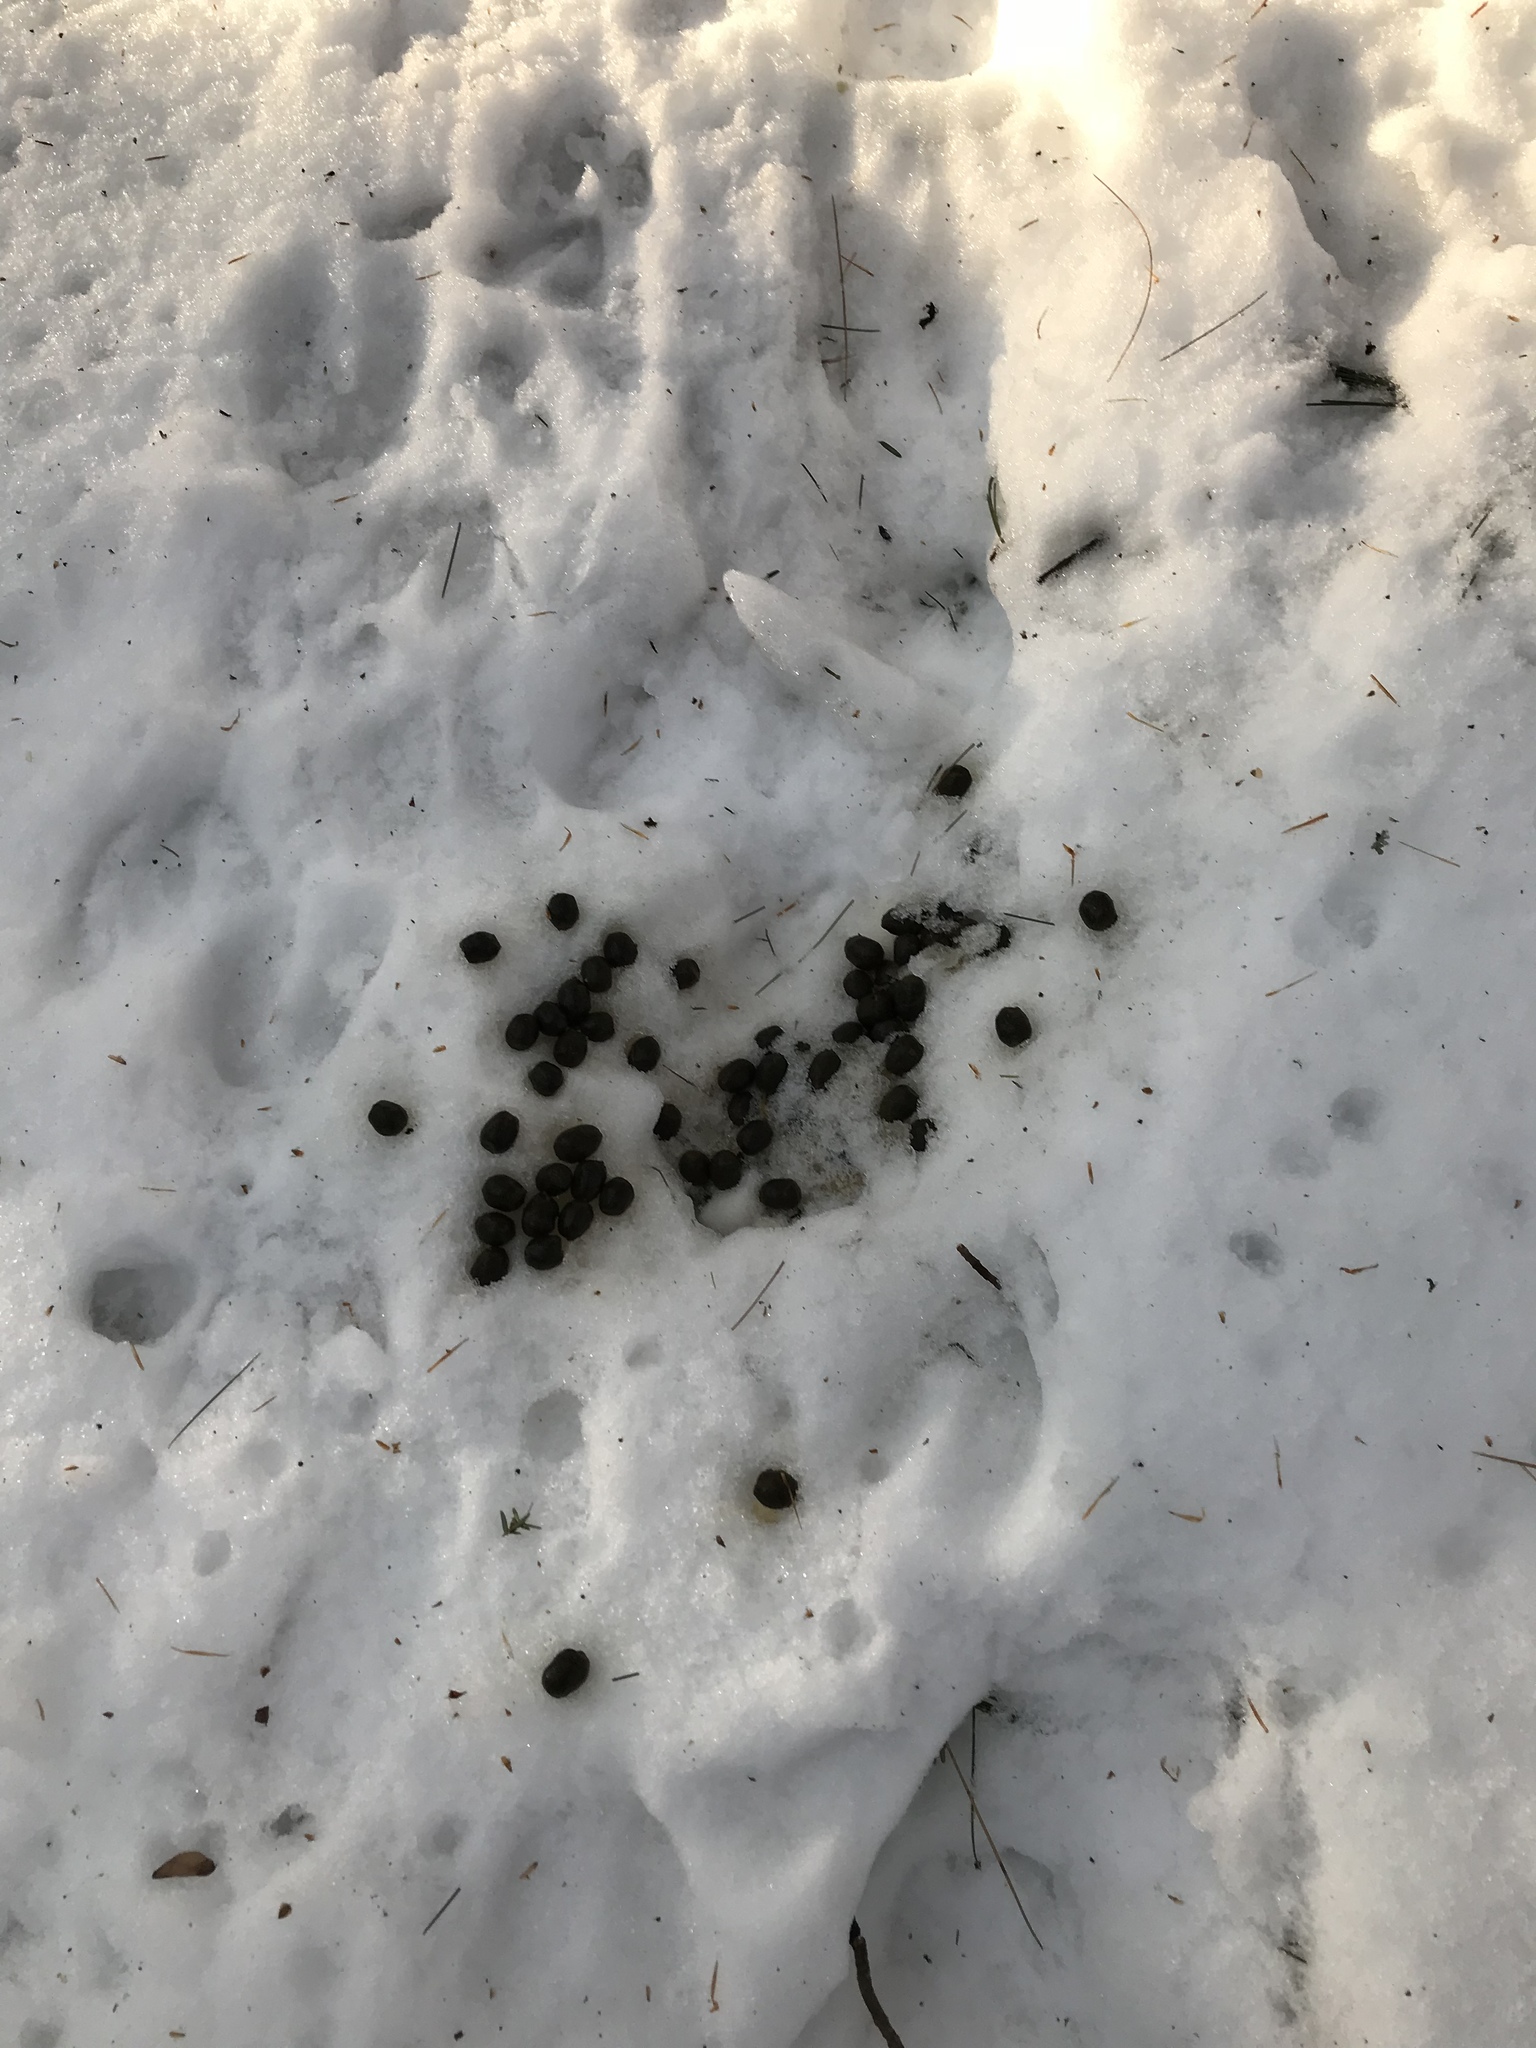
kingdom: Animalia
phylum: Chordata
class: Mammalia
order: Artiodactyla
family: Cervidae
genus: Odocoileus
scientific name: Odocoileus virginianus
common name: White-tailed deer
